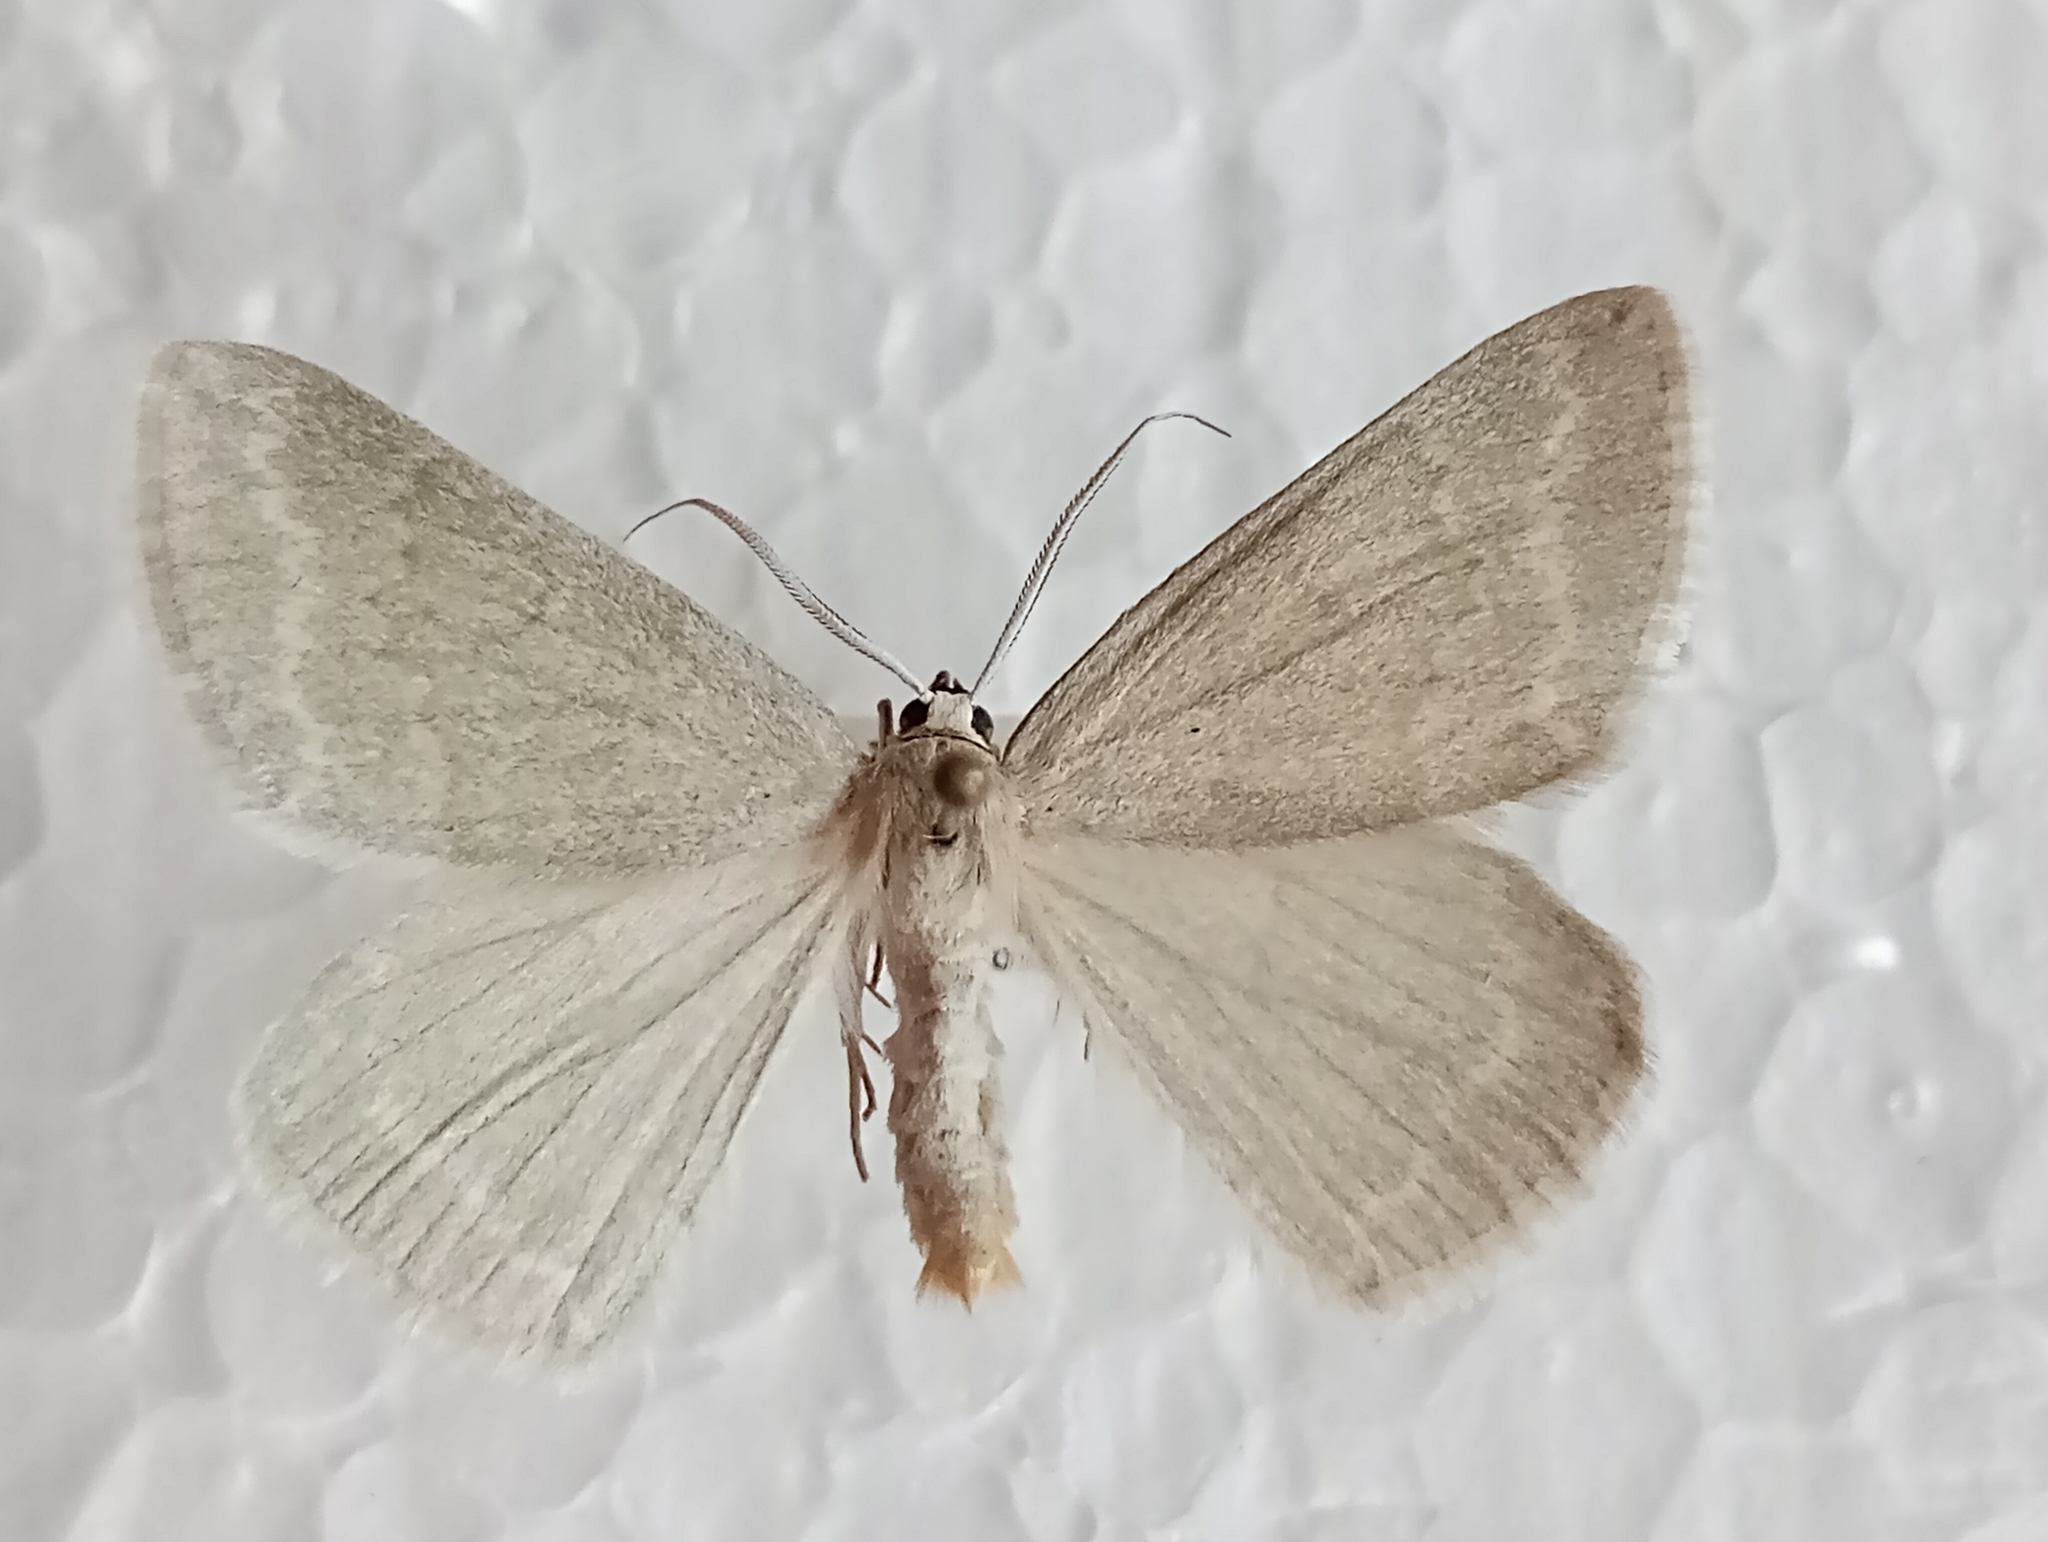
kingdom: Animalia
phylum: Arthropoda
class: Insecta
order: Lepidoptera
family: Geometridae
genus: Pseudoterpna
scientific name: Pseudoterpna pruinata
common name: Grass emerald
